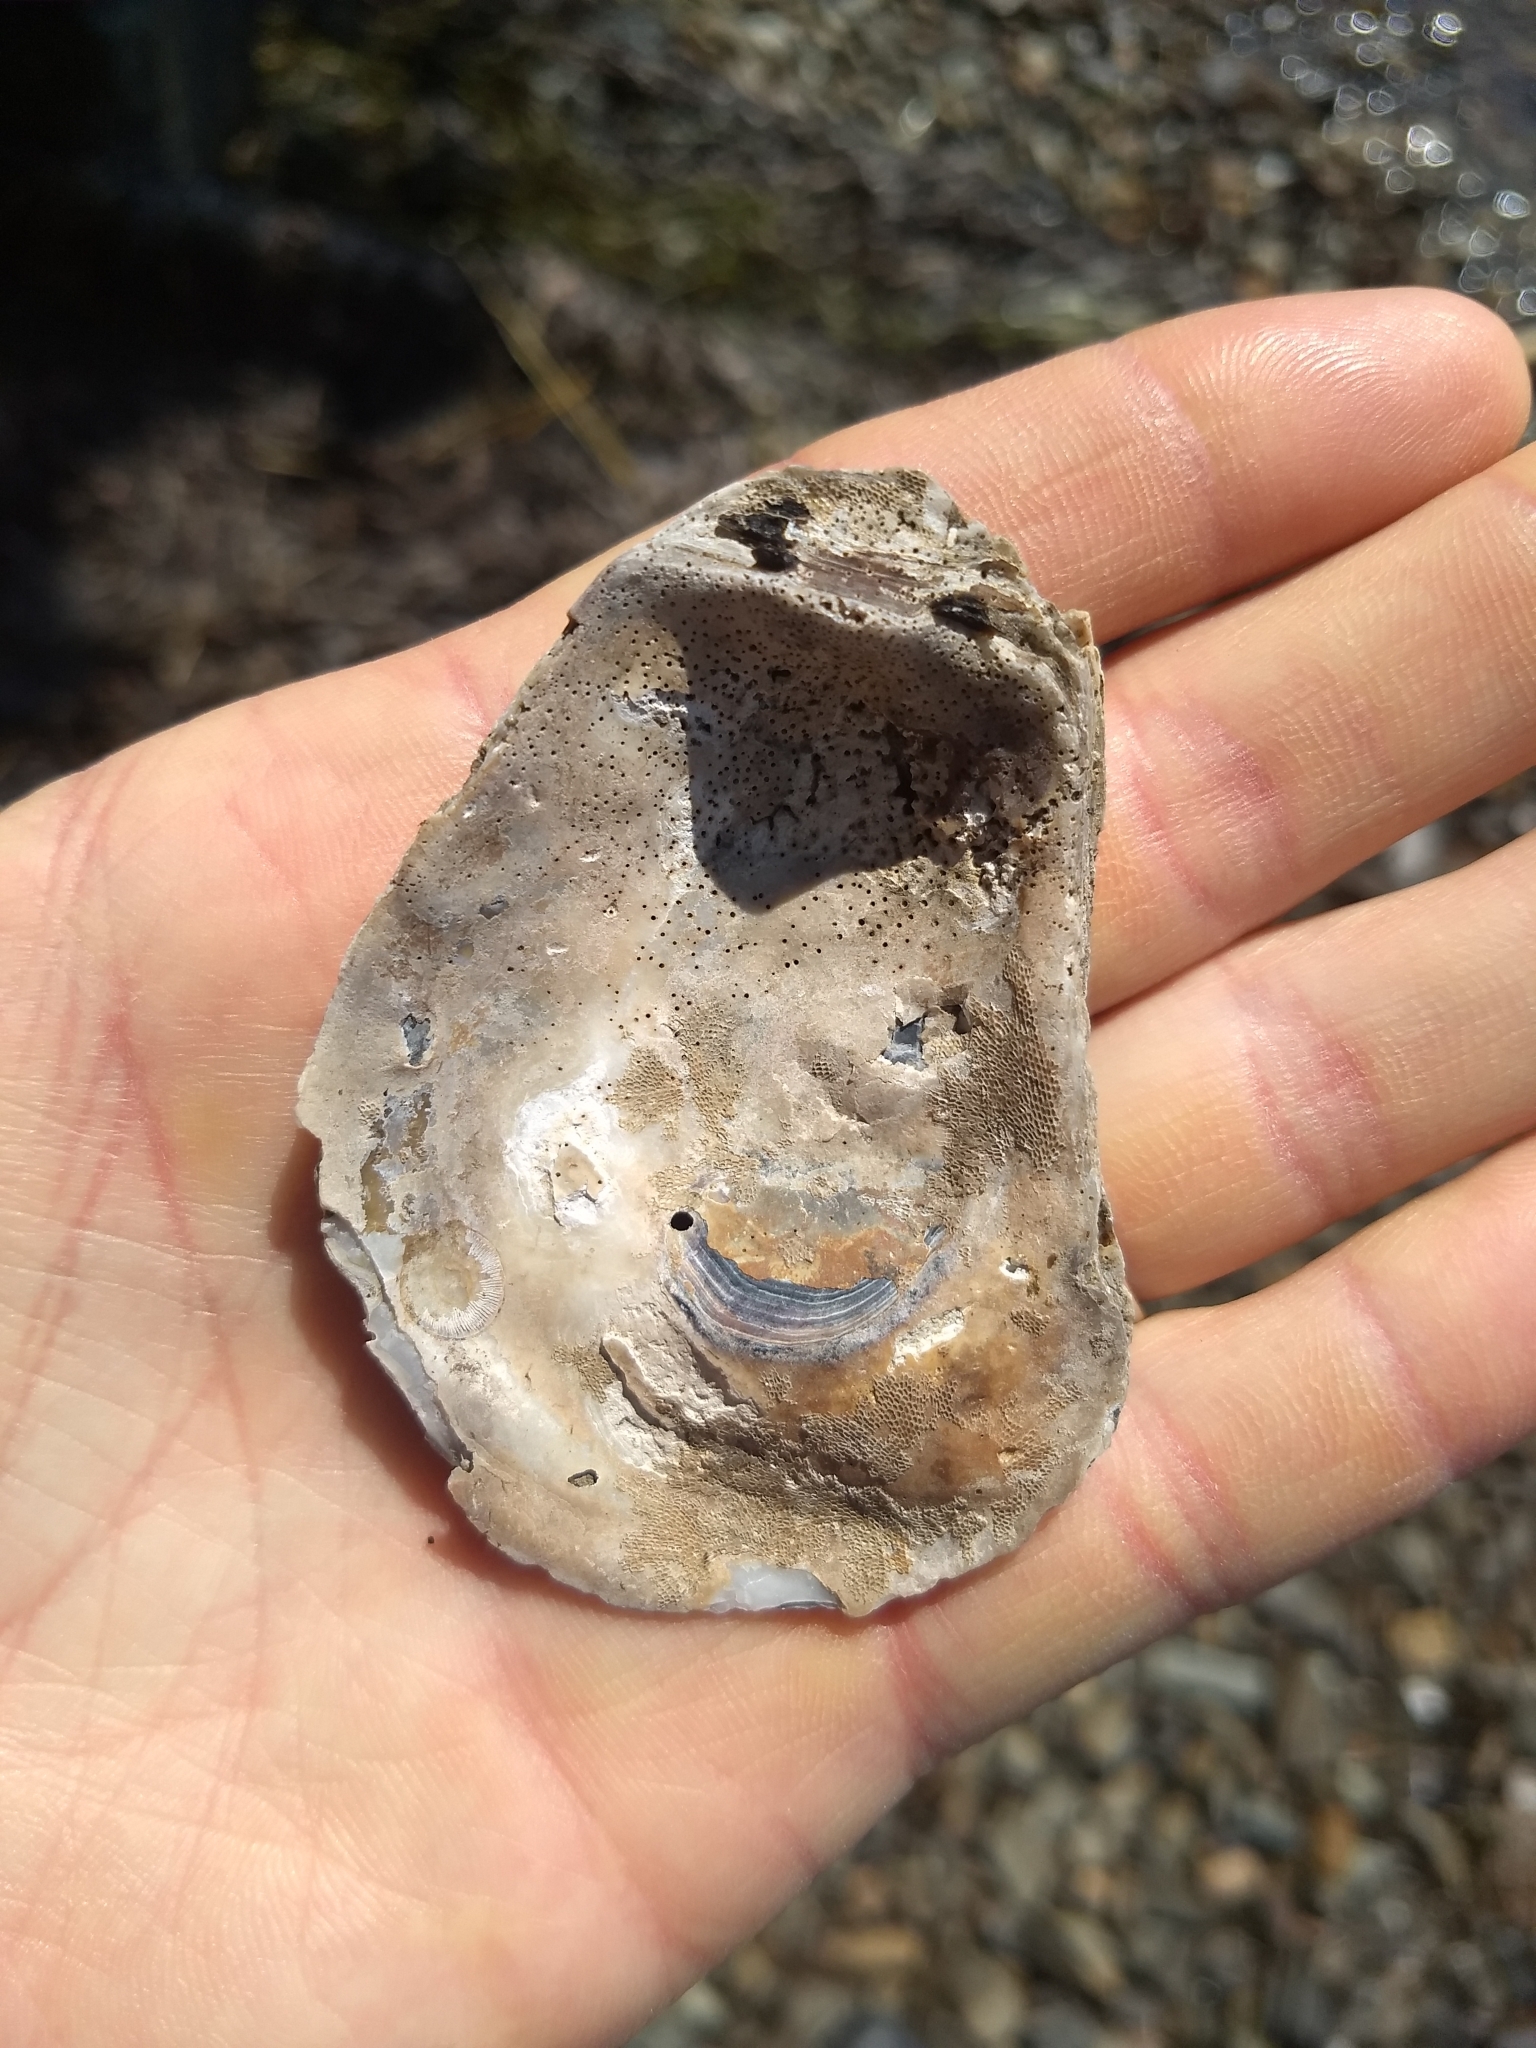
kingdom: Animalia
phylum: Mollusca
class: Bivalvia
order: Ostreida
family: Ostreidae
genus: Crassostrea
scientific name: Crassostrea virginica
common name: American oyster
